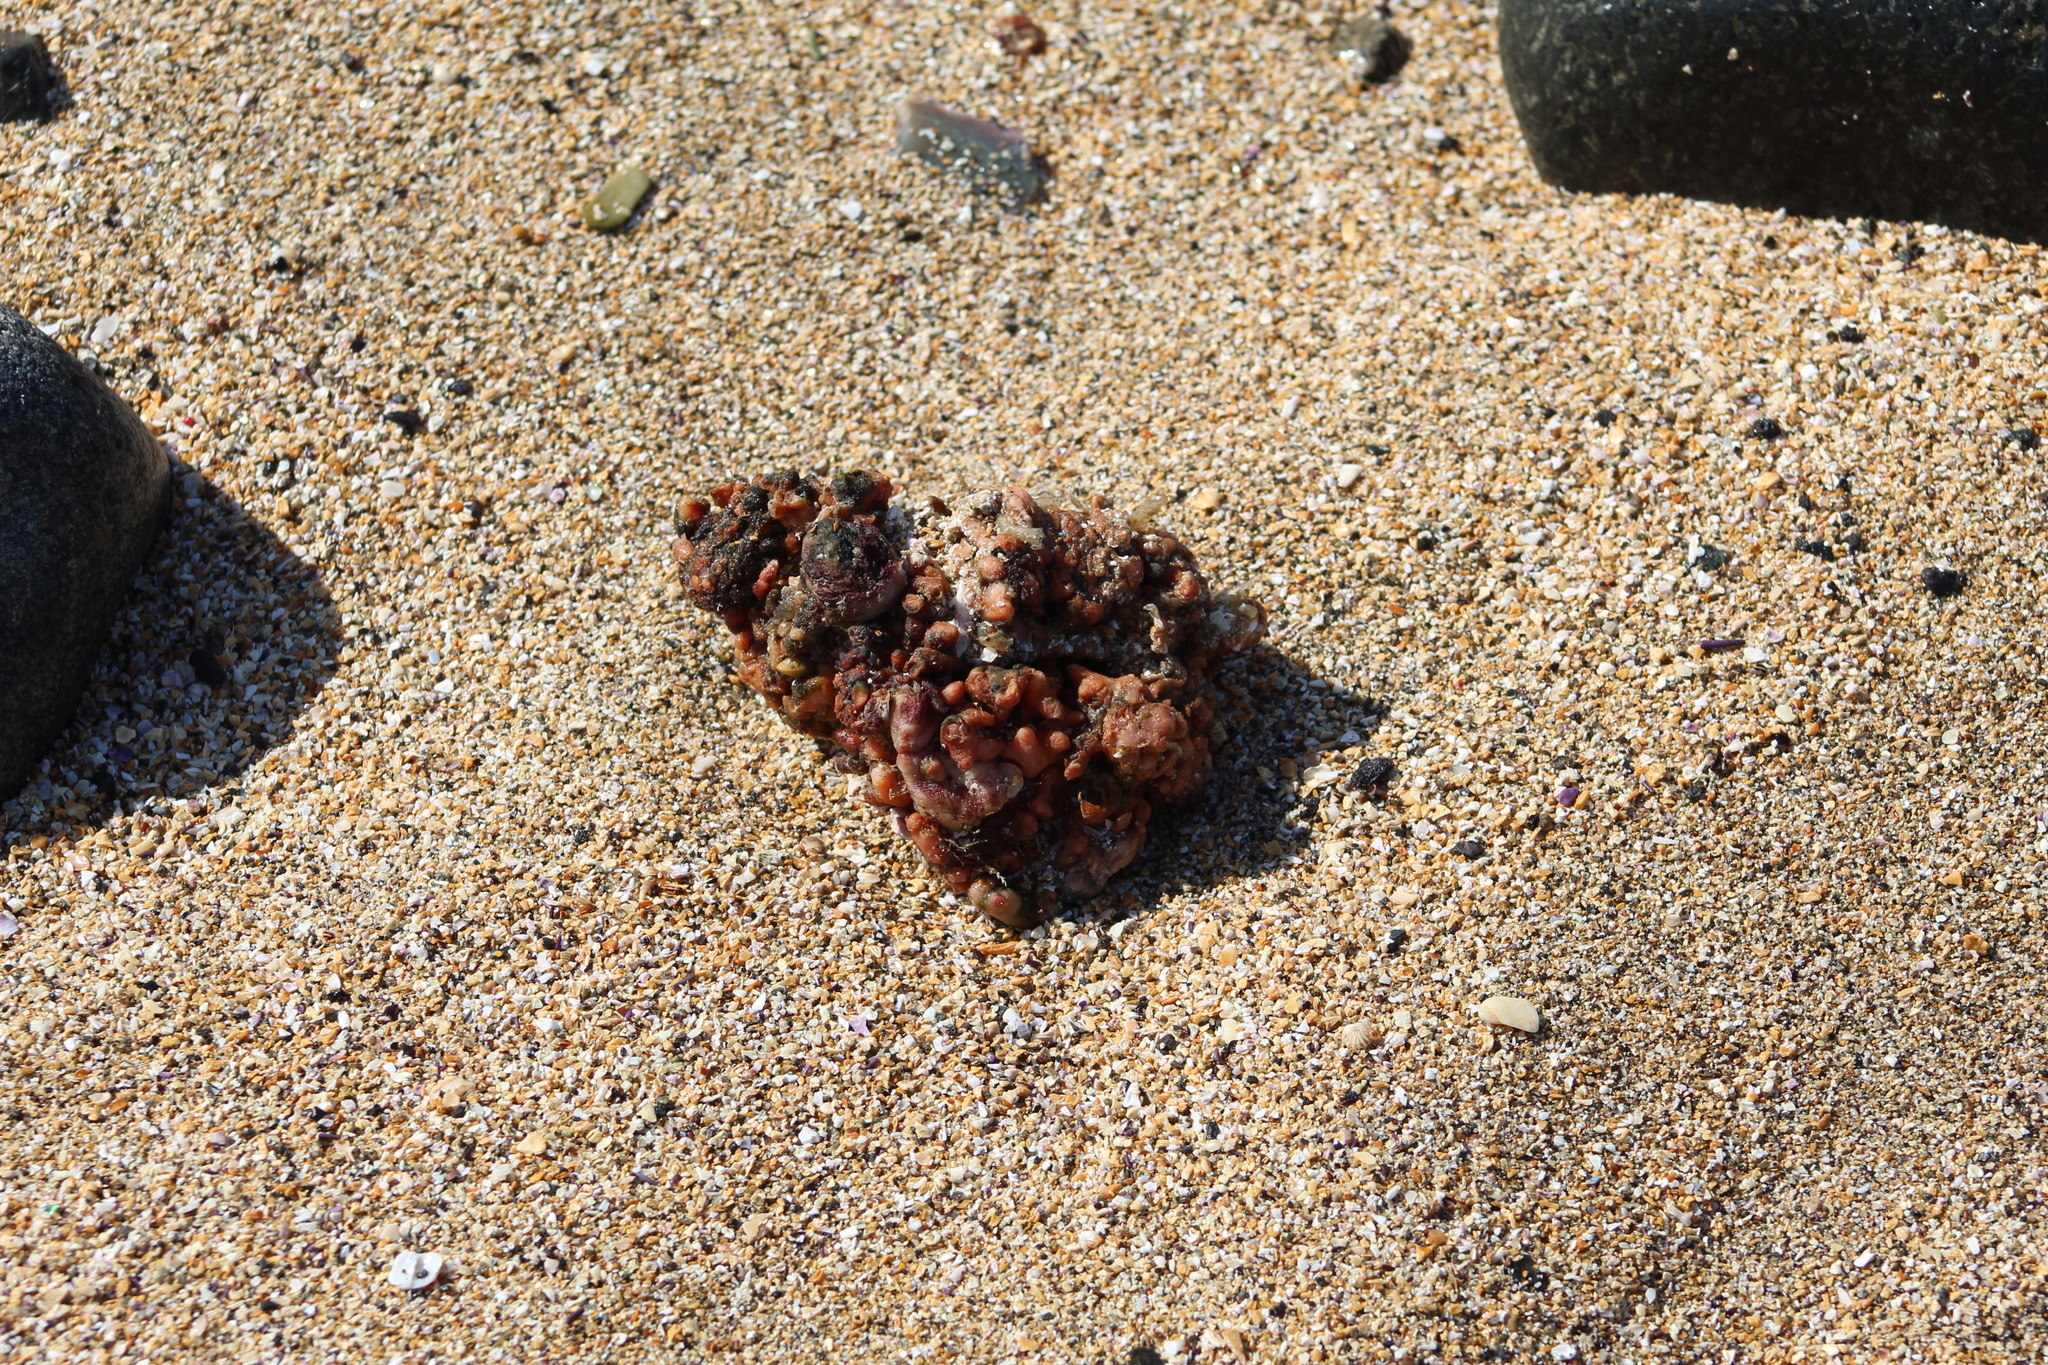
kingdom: Animalia
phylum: Chordata
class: Ascidiacea
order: Stolidobranchia
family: Pyuridae
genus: Pyura
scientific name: Pyura chilensis
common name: Red sea squirt
